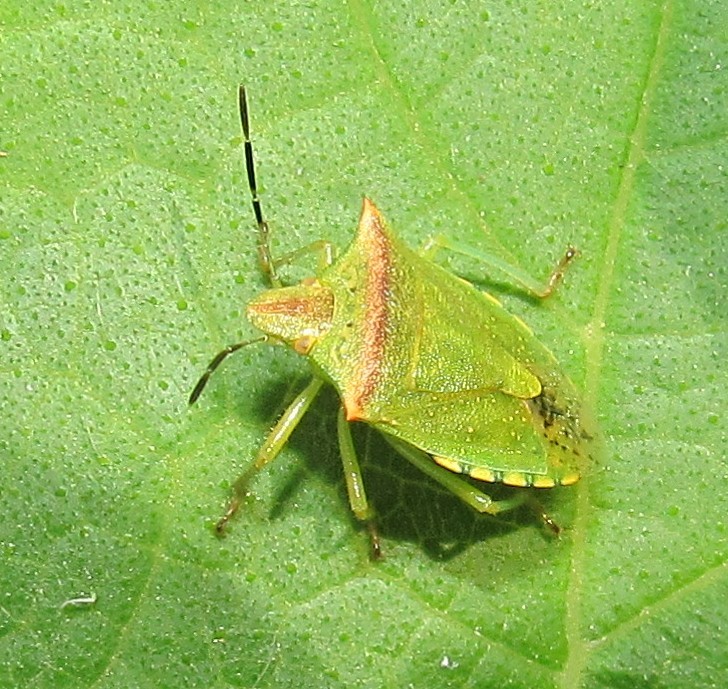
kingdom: Animalia
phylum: Arthropoda
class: Insecta
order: Hemiptera
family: Pentatomidae
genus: Thyanta
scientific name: Thyanta perditor
